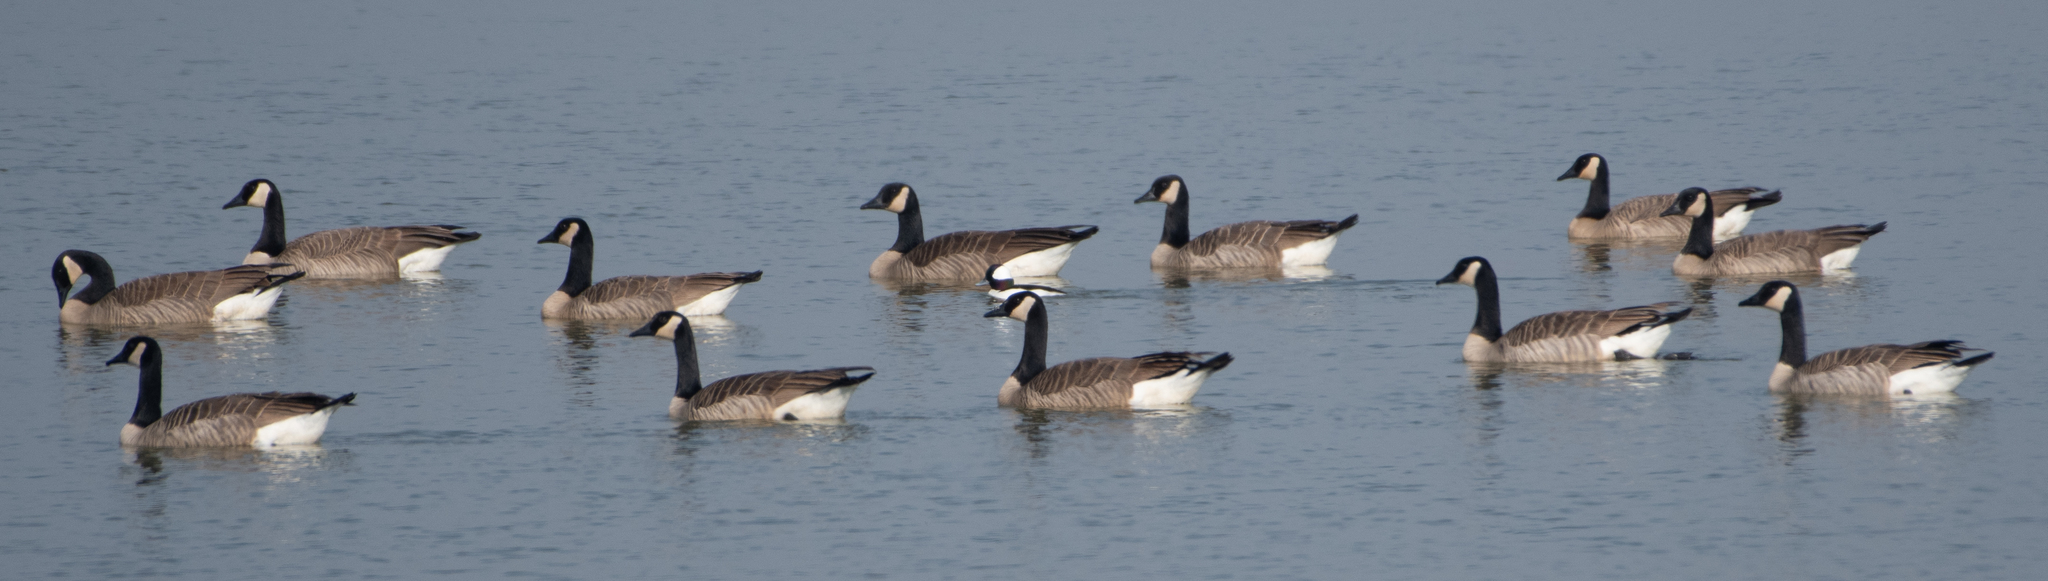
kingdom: Animalia
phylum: Chordata
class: Aves
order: Anseriformes
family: Anatidae
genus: Branta
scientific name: Branta canadensis
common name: Canada goose
